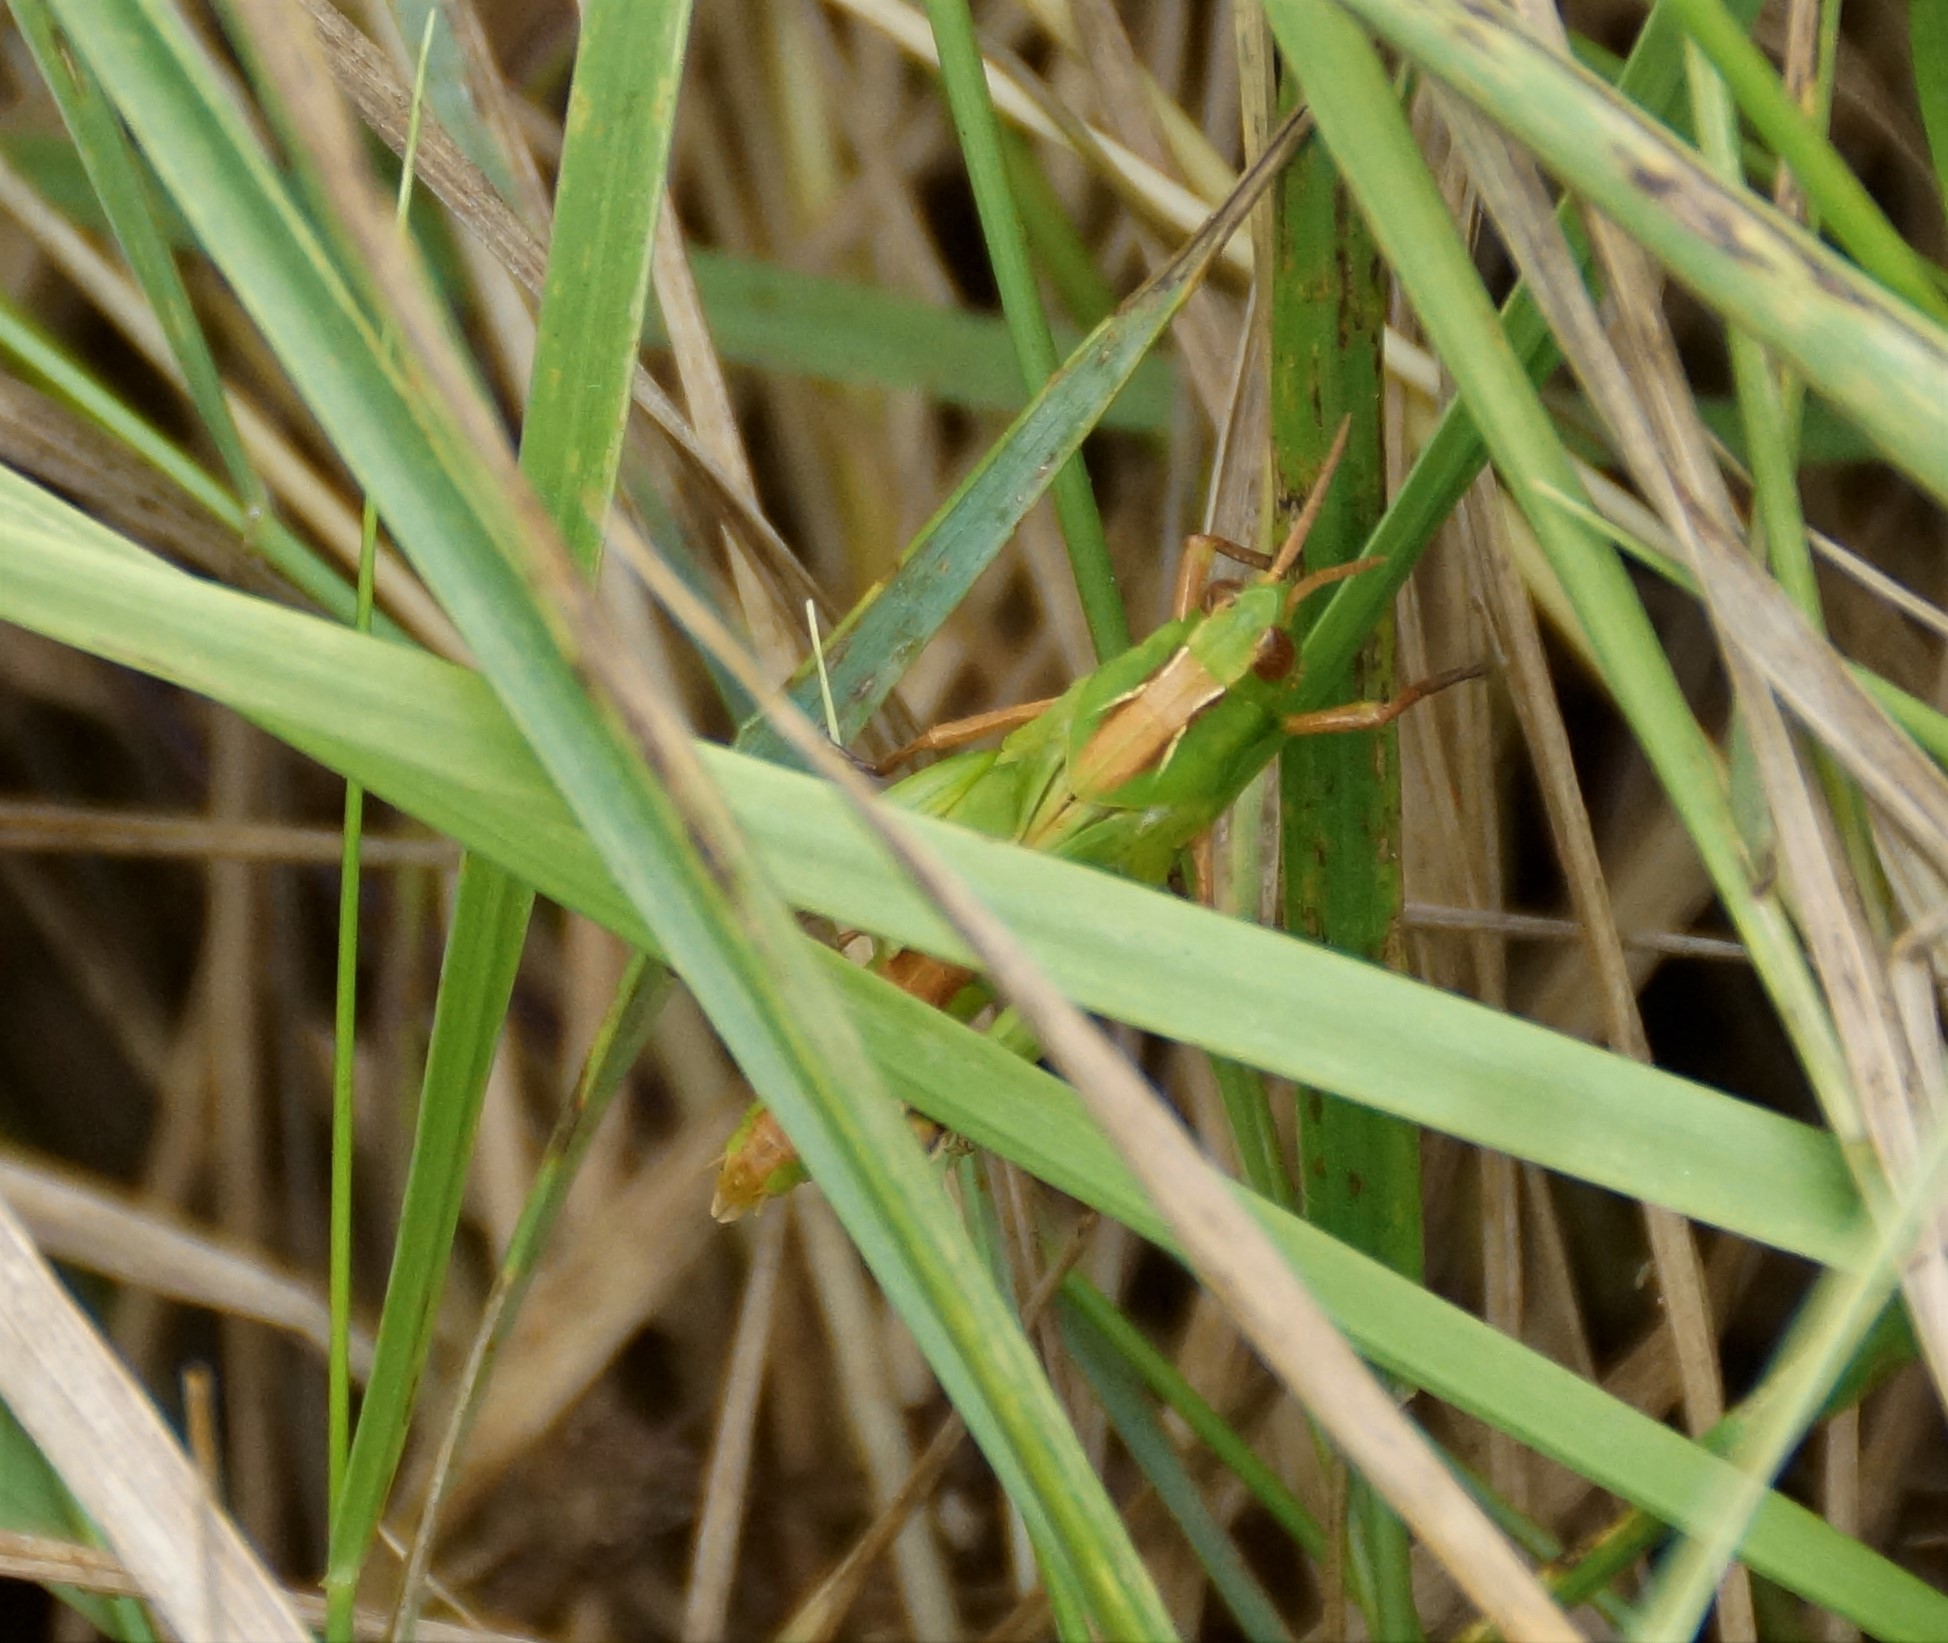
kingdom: Animalia
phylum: Arthropoda
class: Insecta
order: Orthoptera
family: Acrididae
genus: Schizobothrus
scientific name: Schizobothrus flavovittatus
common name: Disappearing grasshopper
